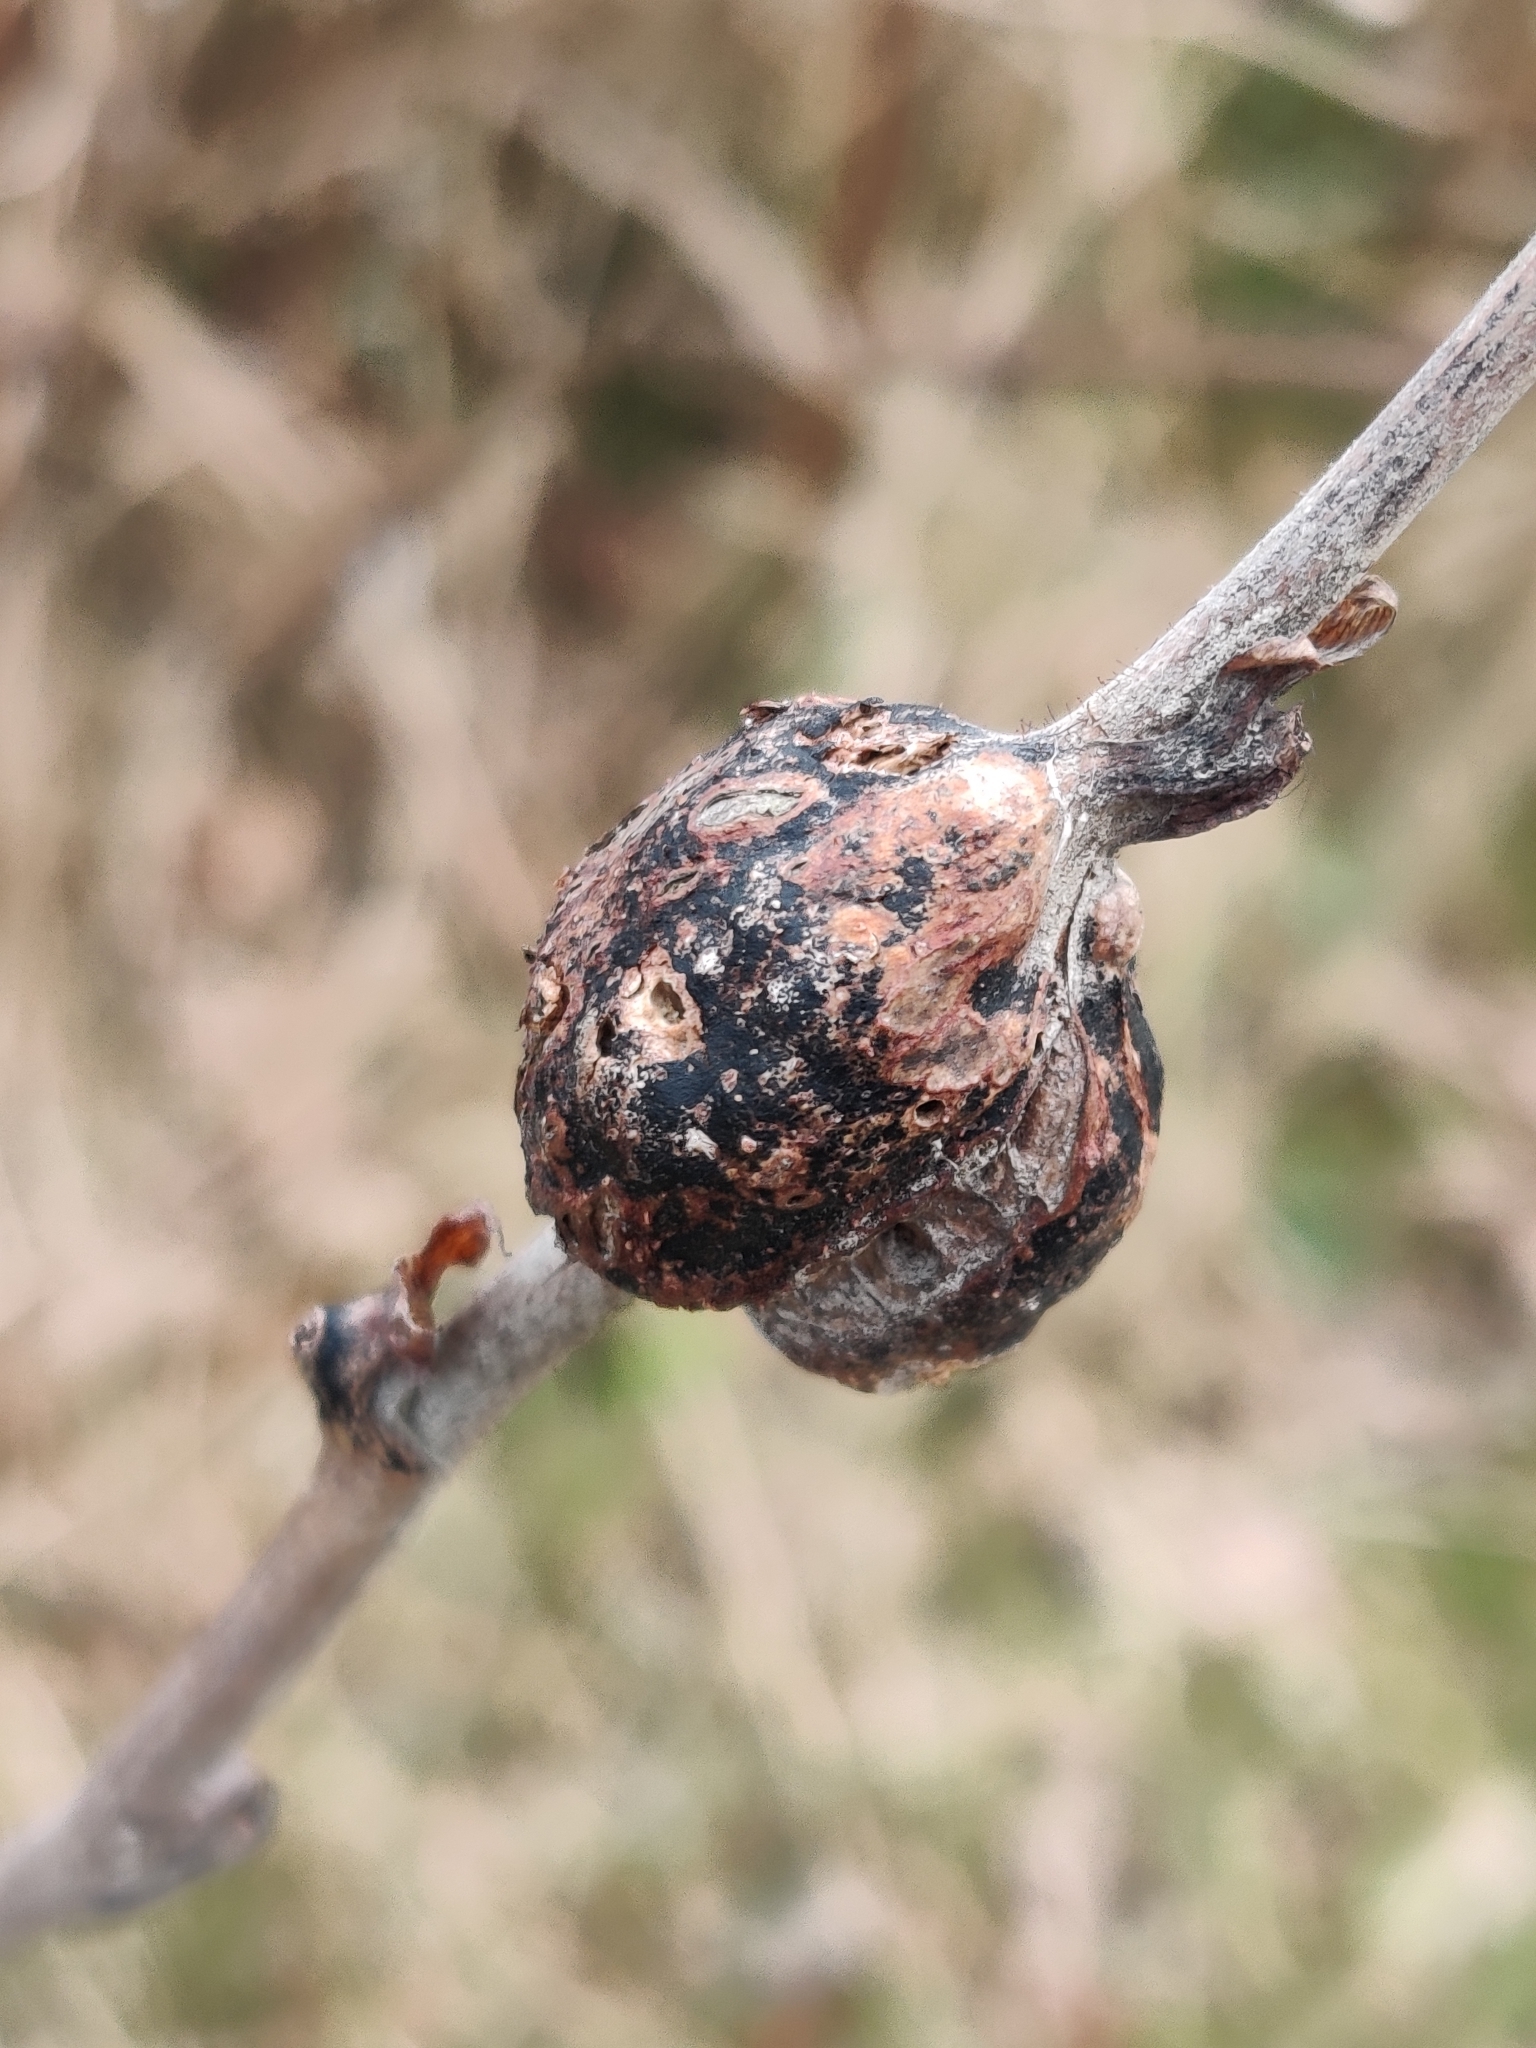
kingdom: Animalia
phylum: Arthropoda
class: Insecta
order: Hymenoptera
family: Cynipidae
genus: Diastrophus
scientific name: Diastrophus
